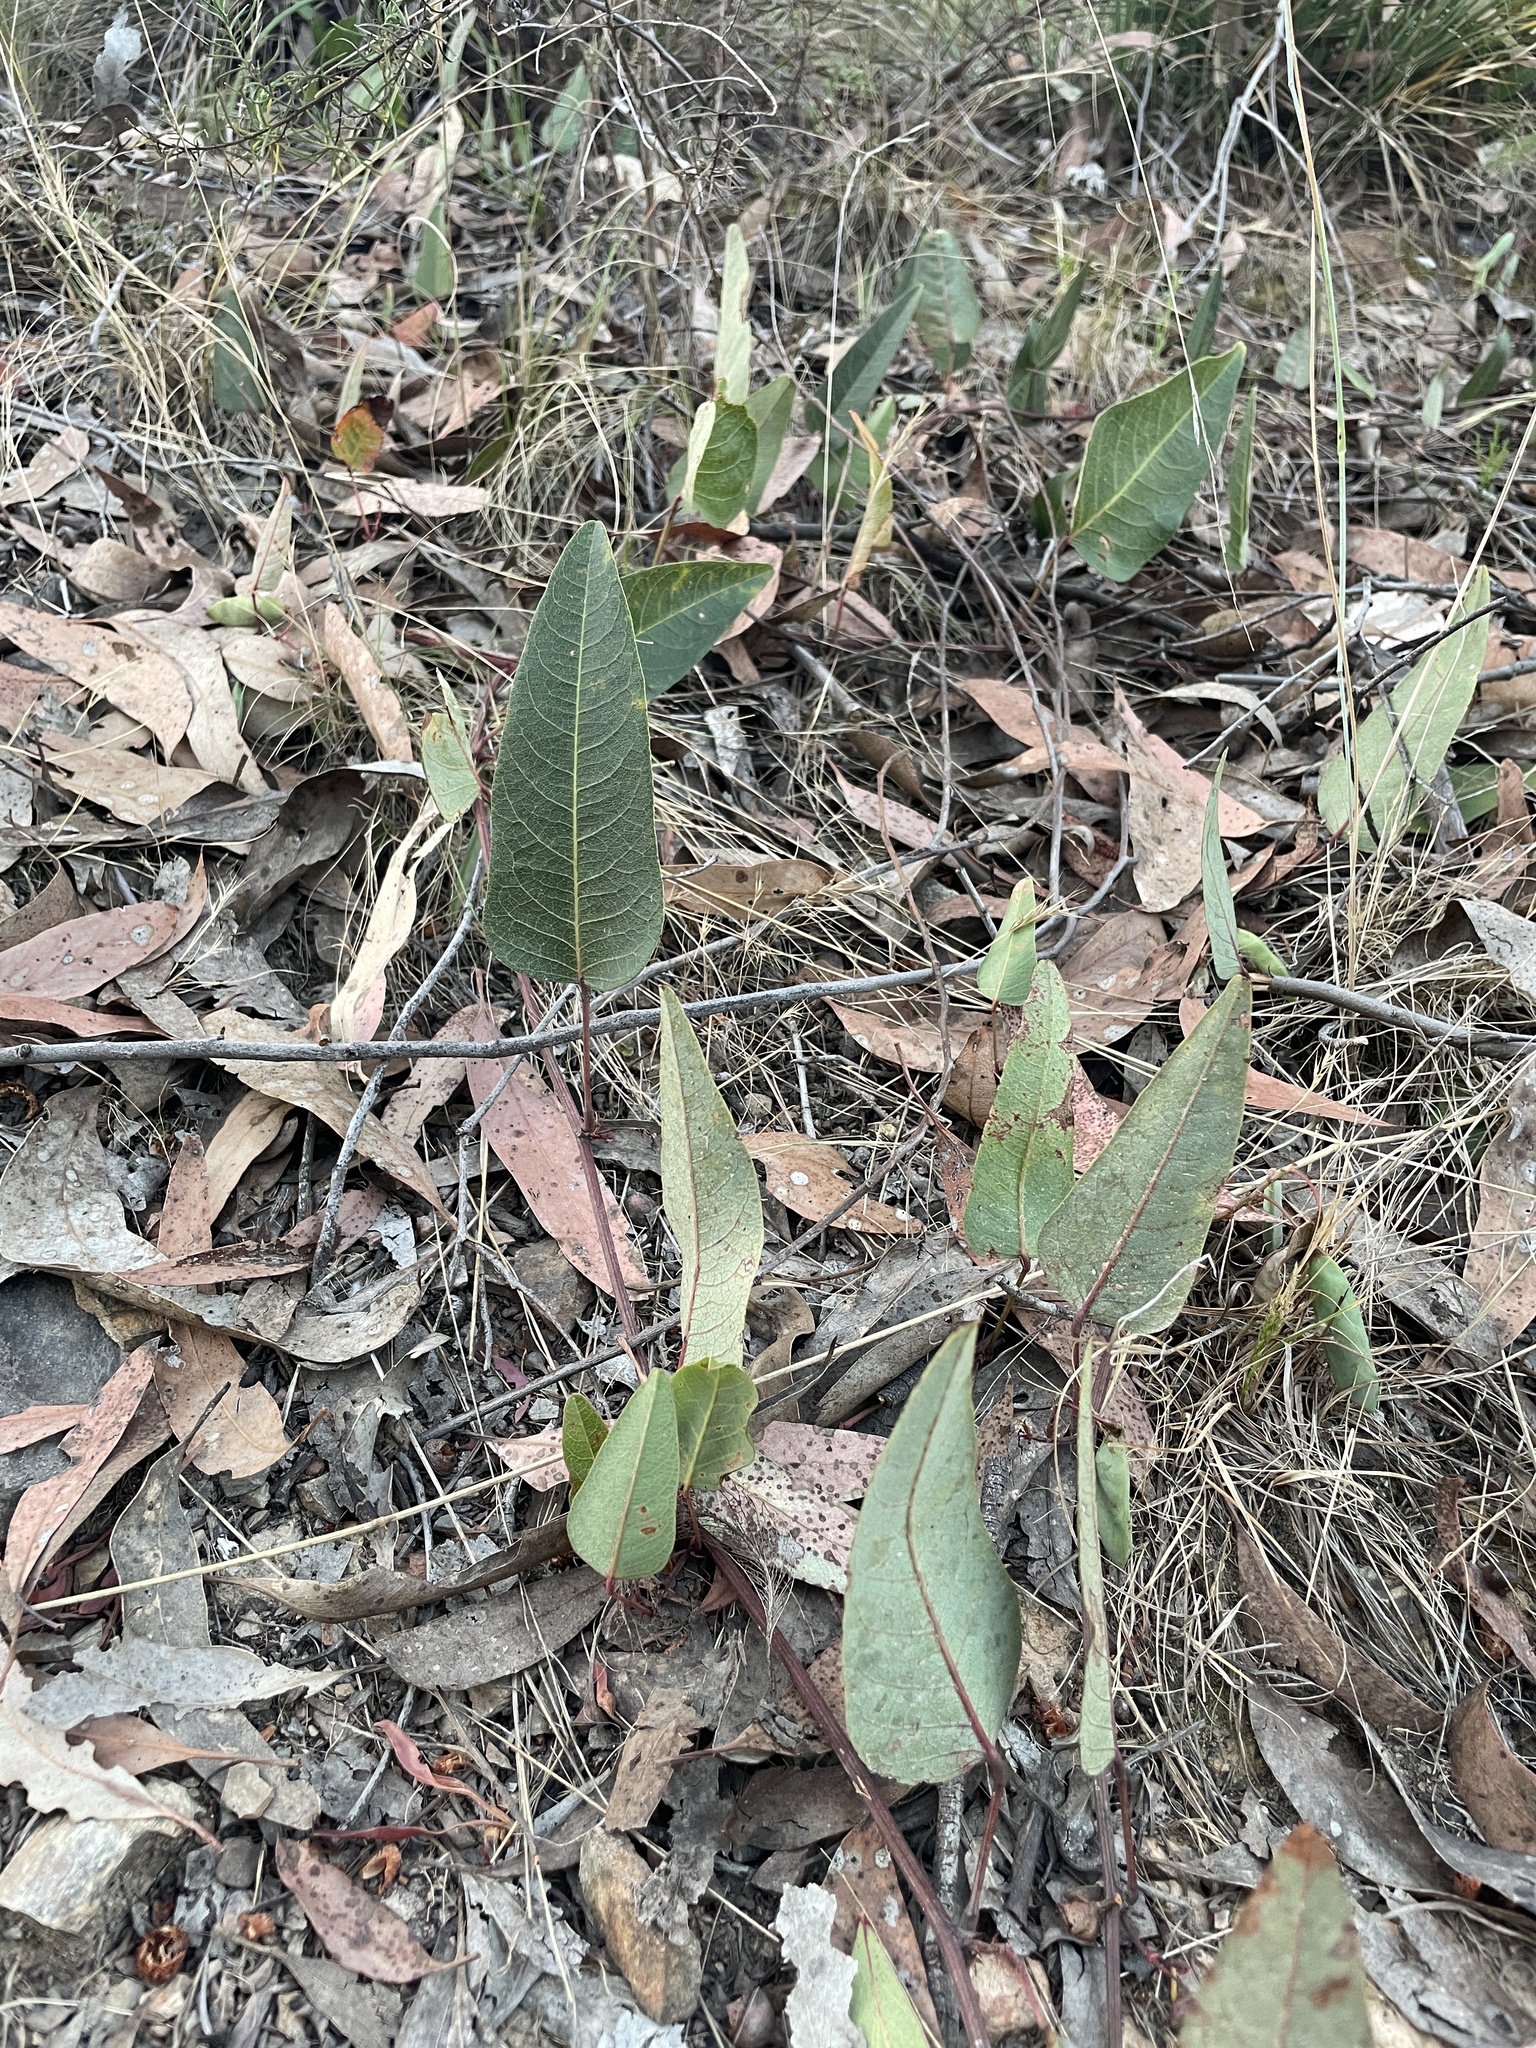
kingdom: Plantae
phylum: Tracheophyta
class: Magnoliopsida
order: Fabales
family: Fabaceae
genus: Hardenbergia
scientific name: Hardenbergia violacea
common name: Coral-pea
